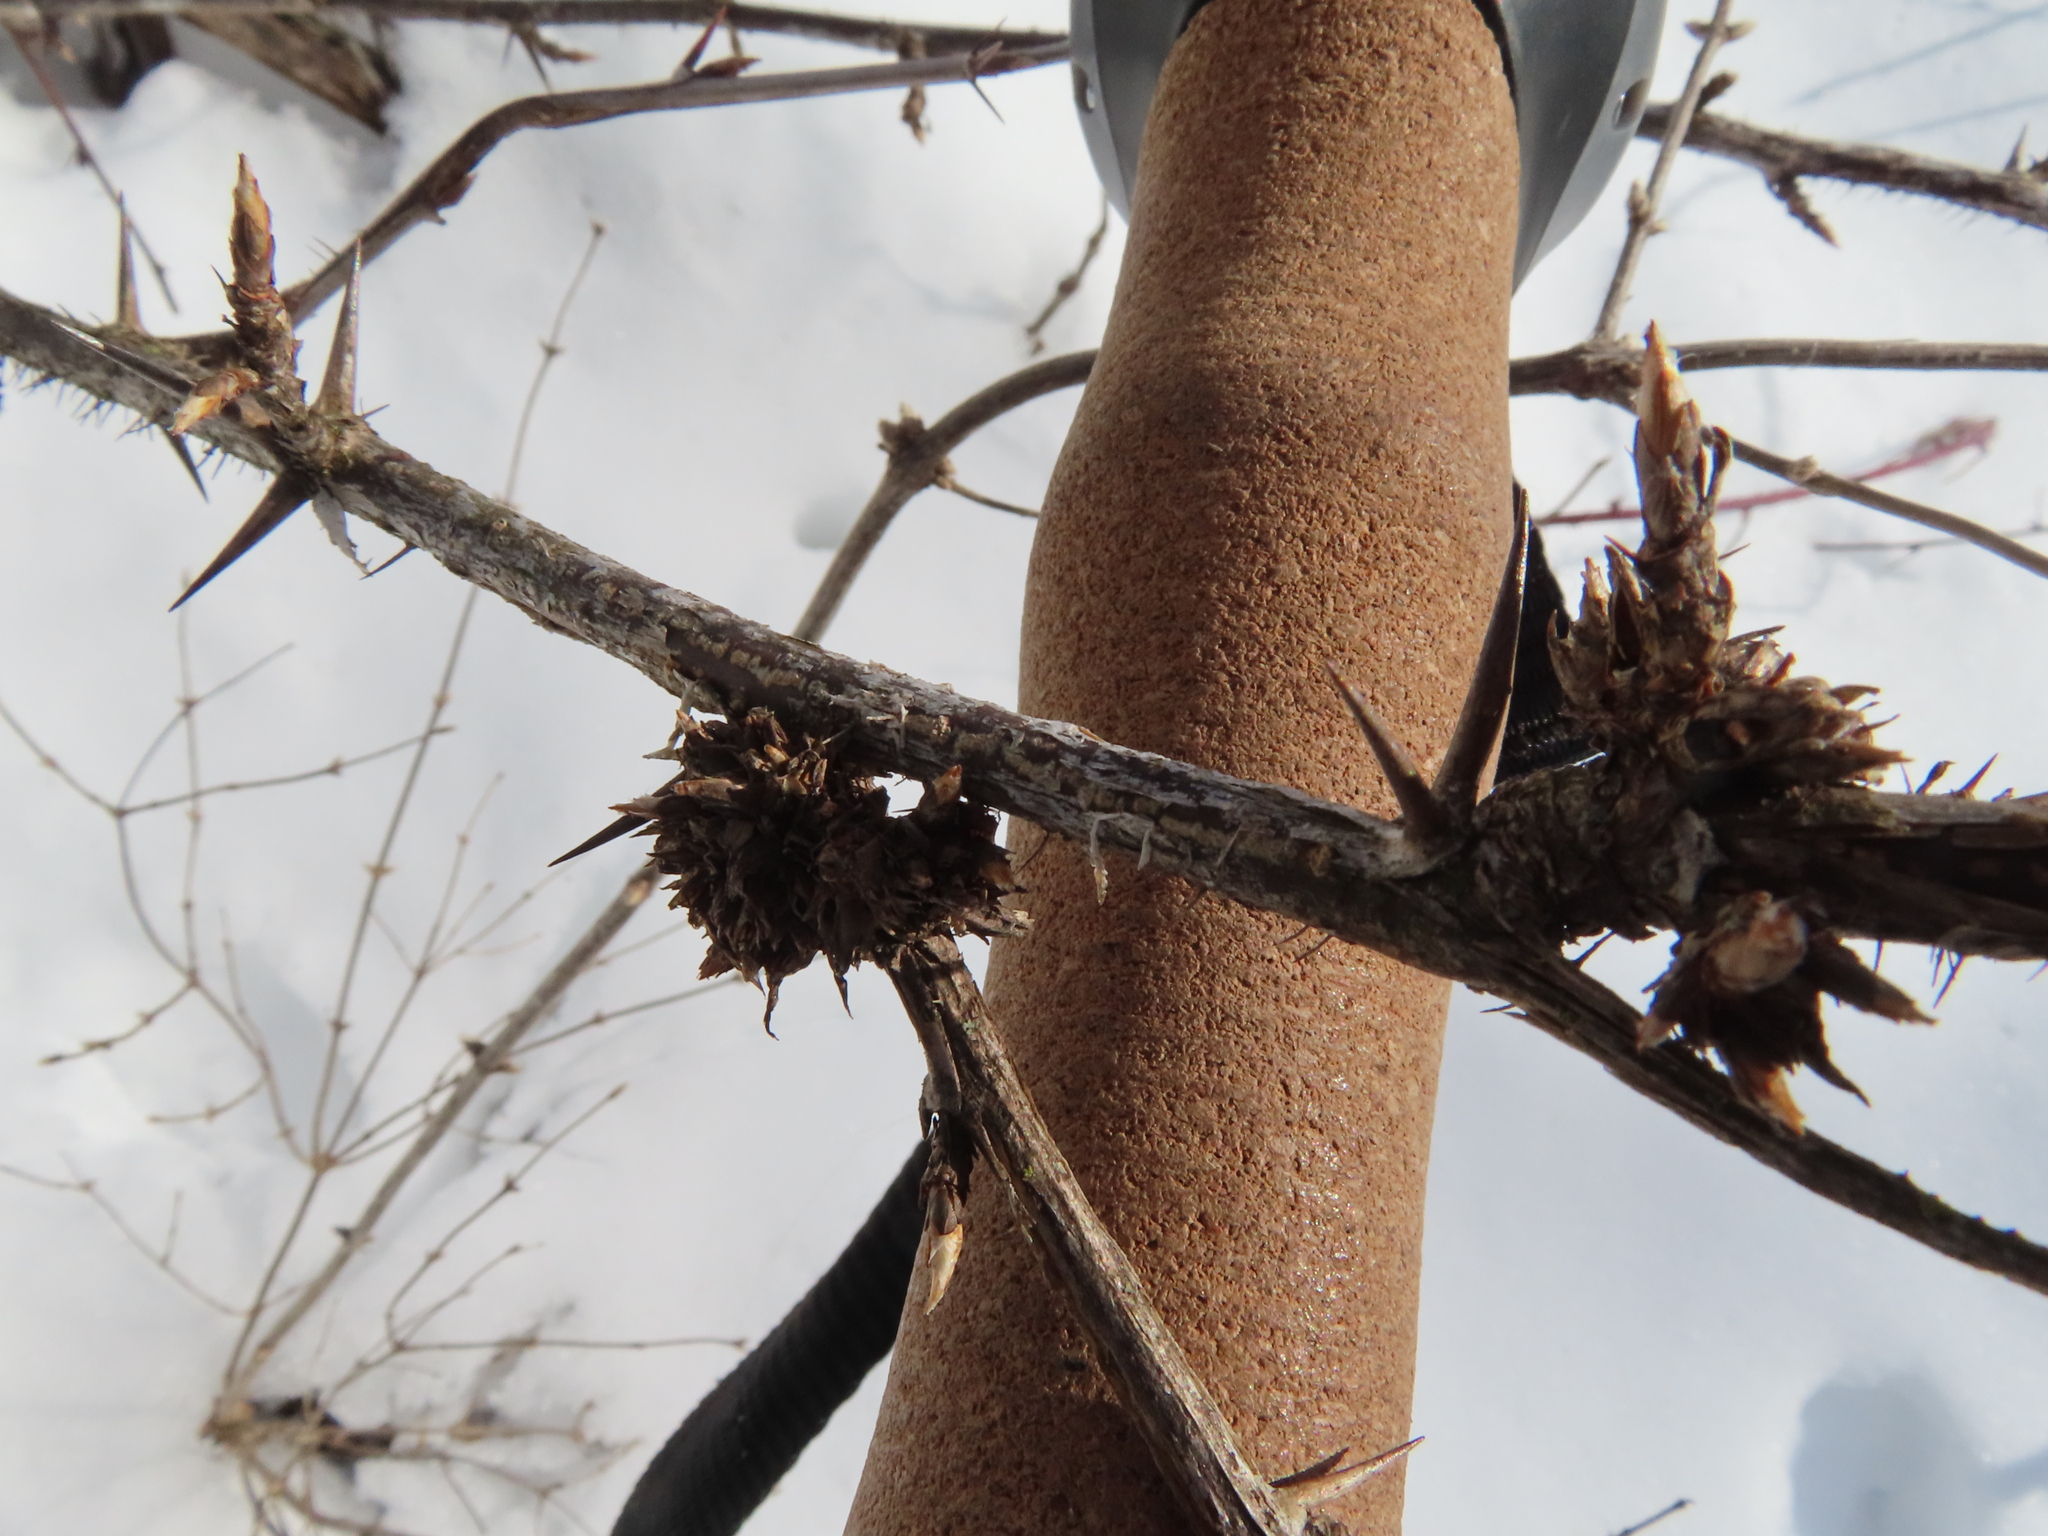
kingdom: Animalia
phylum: Arthropoda
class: Insecta
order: Diptera
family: Cecidomyiidae
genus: Rhopalomyia
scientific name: Rhopalomyia grossulariae
